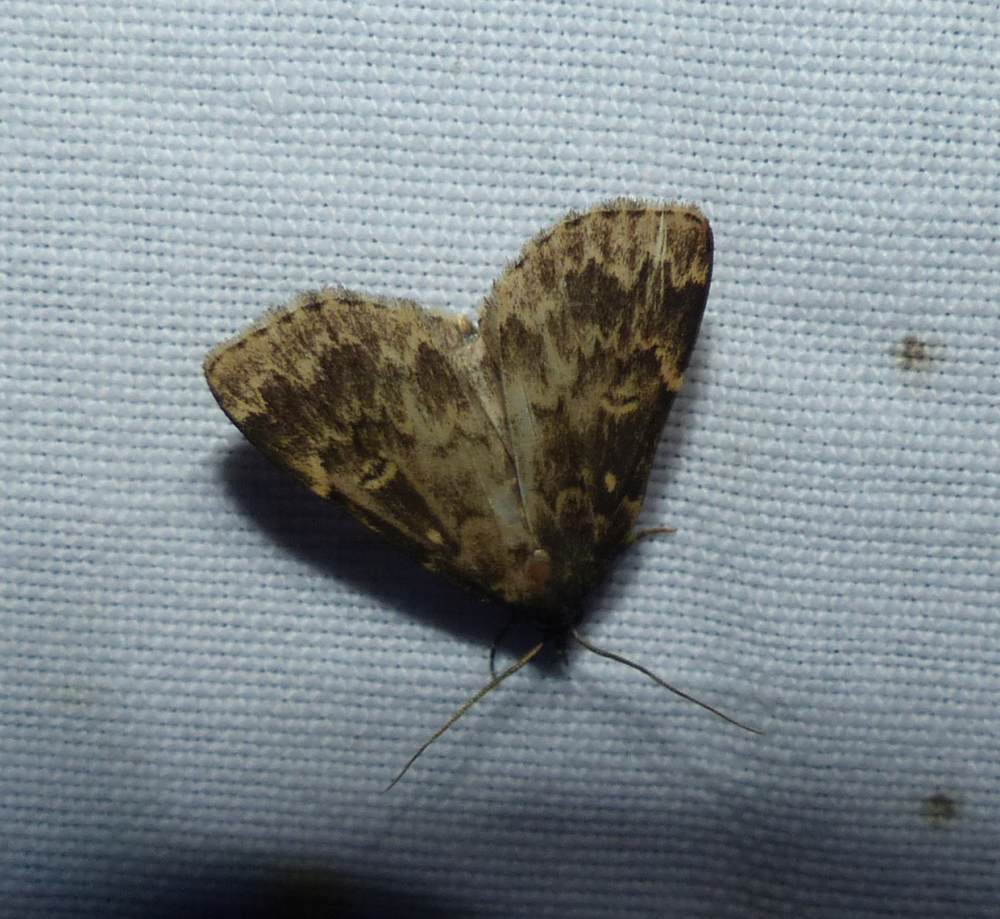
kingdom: Animalia
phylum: Arthropoda
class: Insecta
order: Lepidoptera
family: Erebidae
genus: Idia
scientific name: Idia lubricalis
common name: Twin-striped tabby
